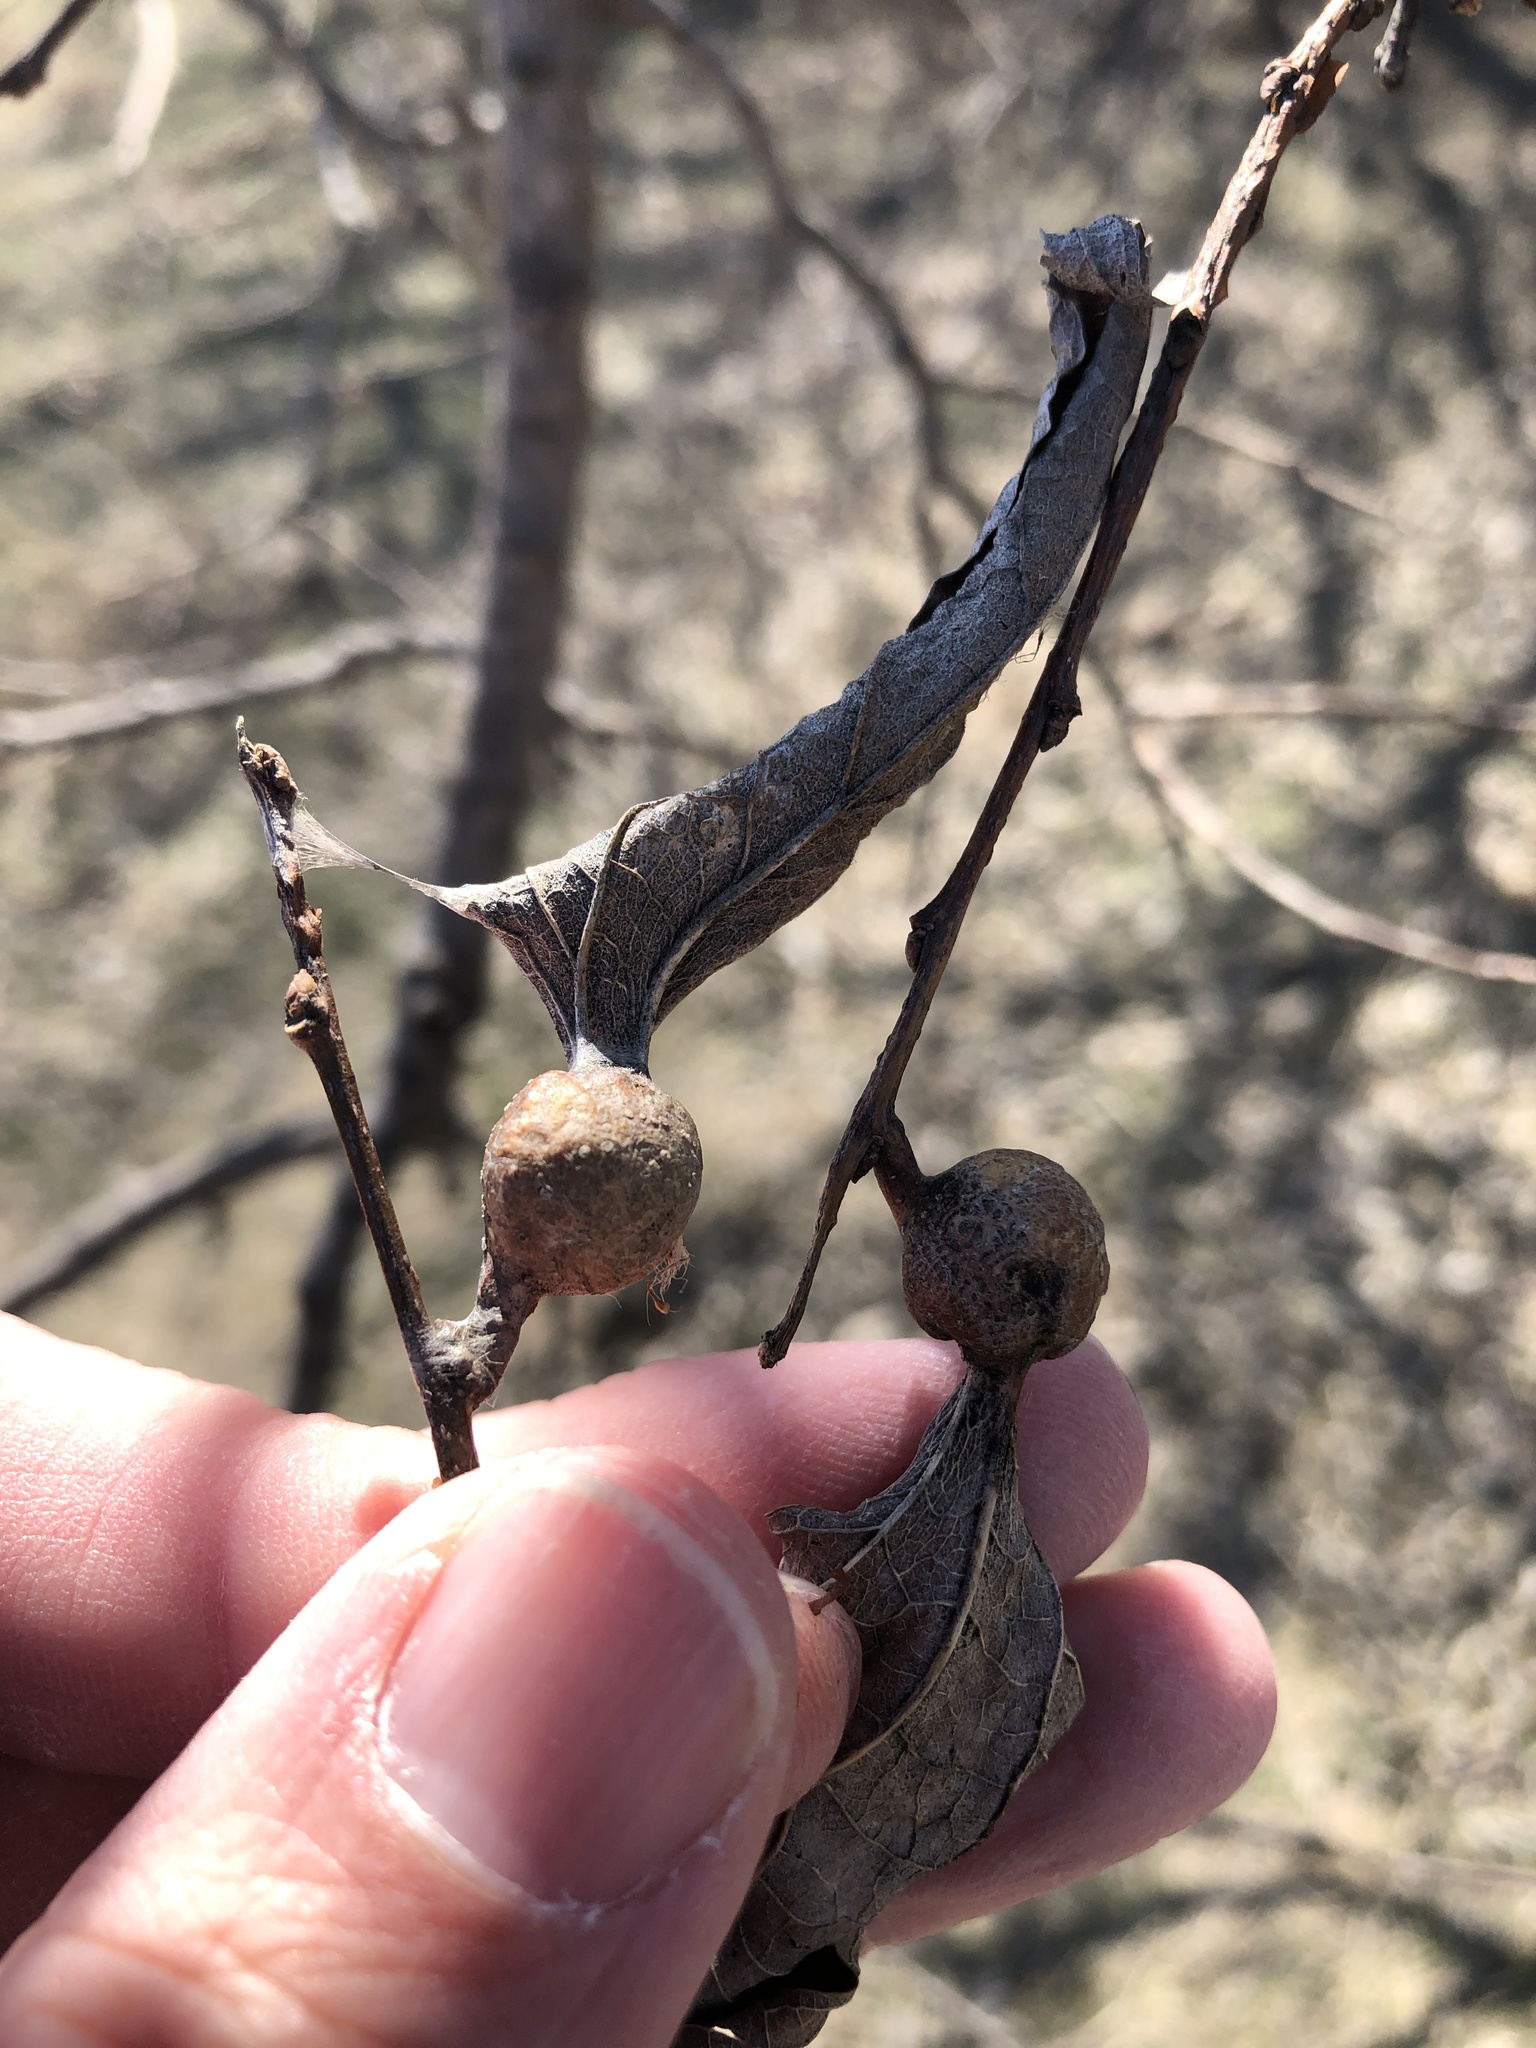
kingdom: Animalia
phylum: Arthropoda
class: Insecta
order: Hemiptera
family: Aphalaridae
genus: Pachypsylla
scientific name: Pachypsylla venusta
